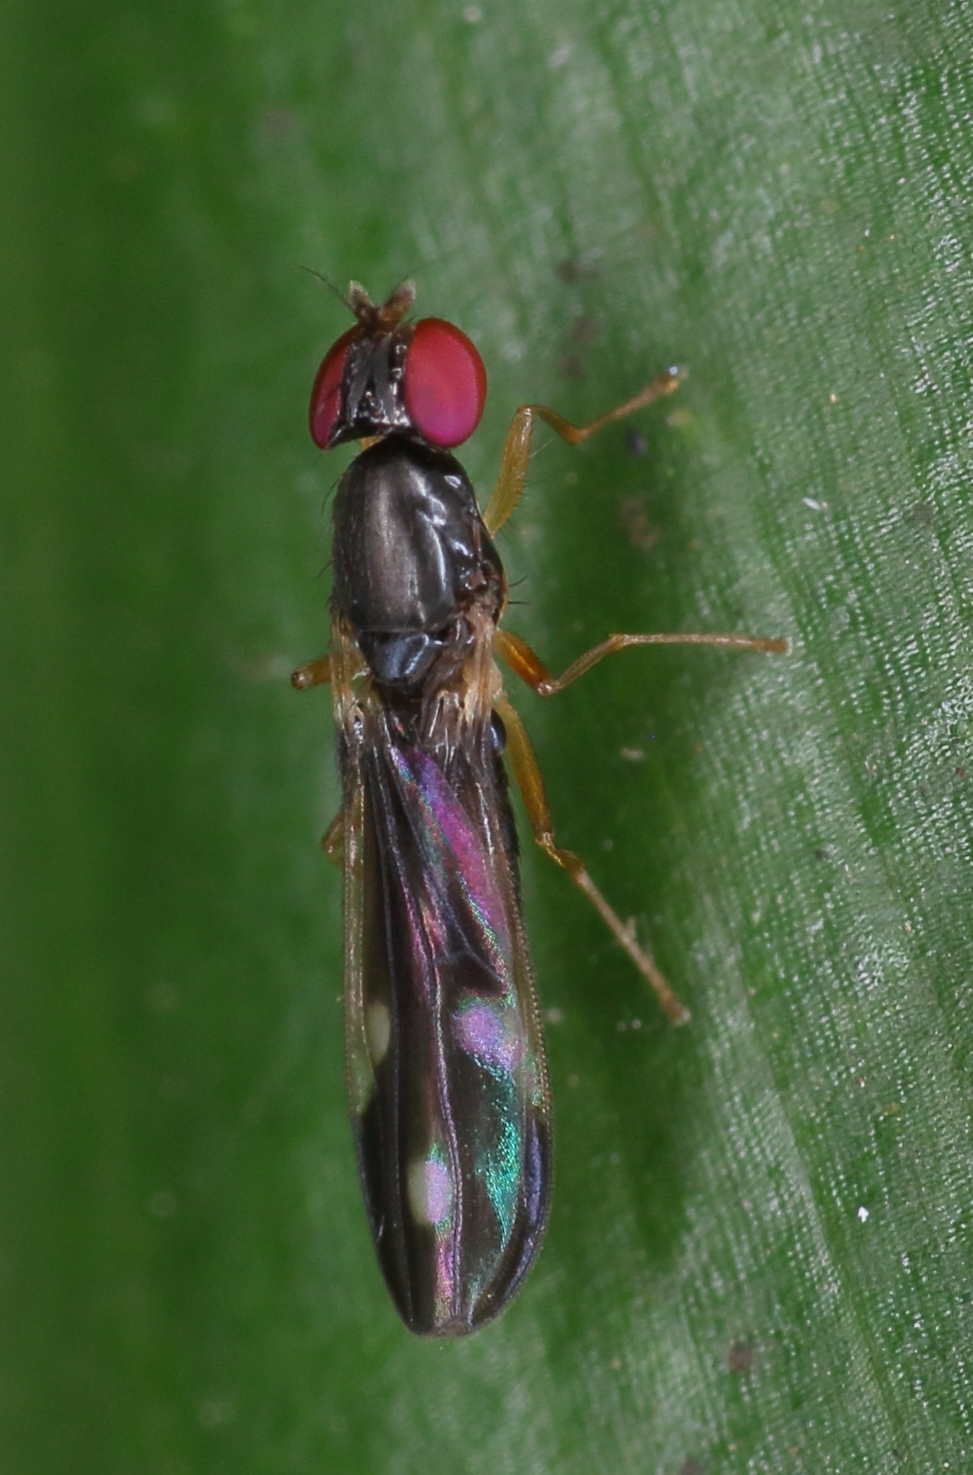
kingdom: Animalia
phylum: Arthropoda
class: Insecta
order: Diptera
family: Anthomyzidae
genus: Amygdalops
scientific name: Amygdalops poecilus
